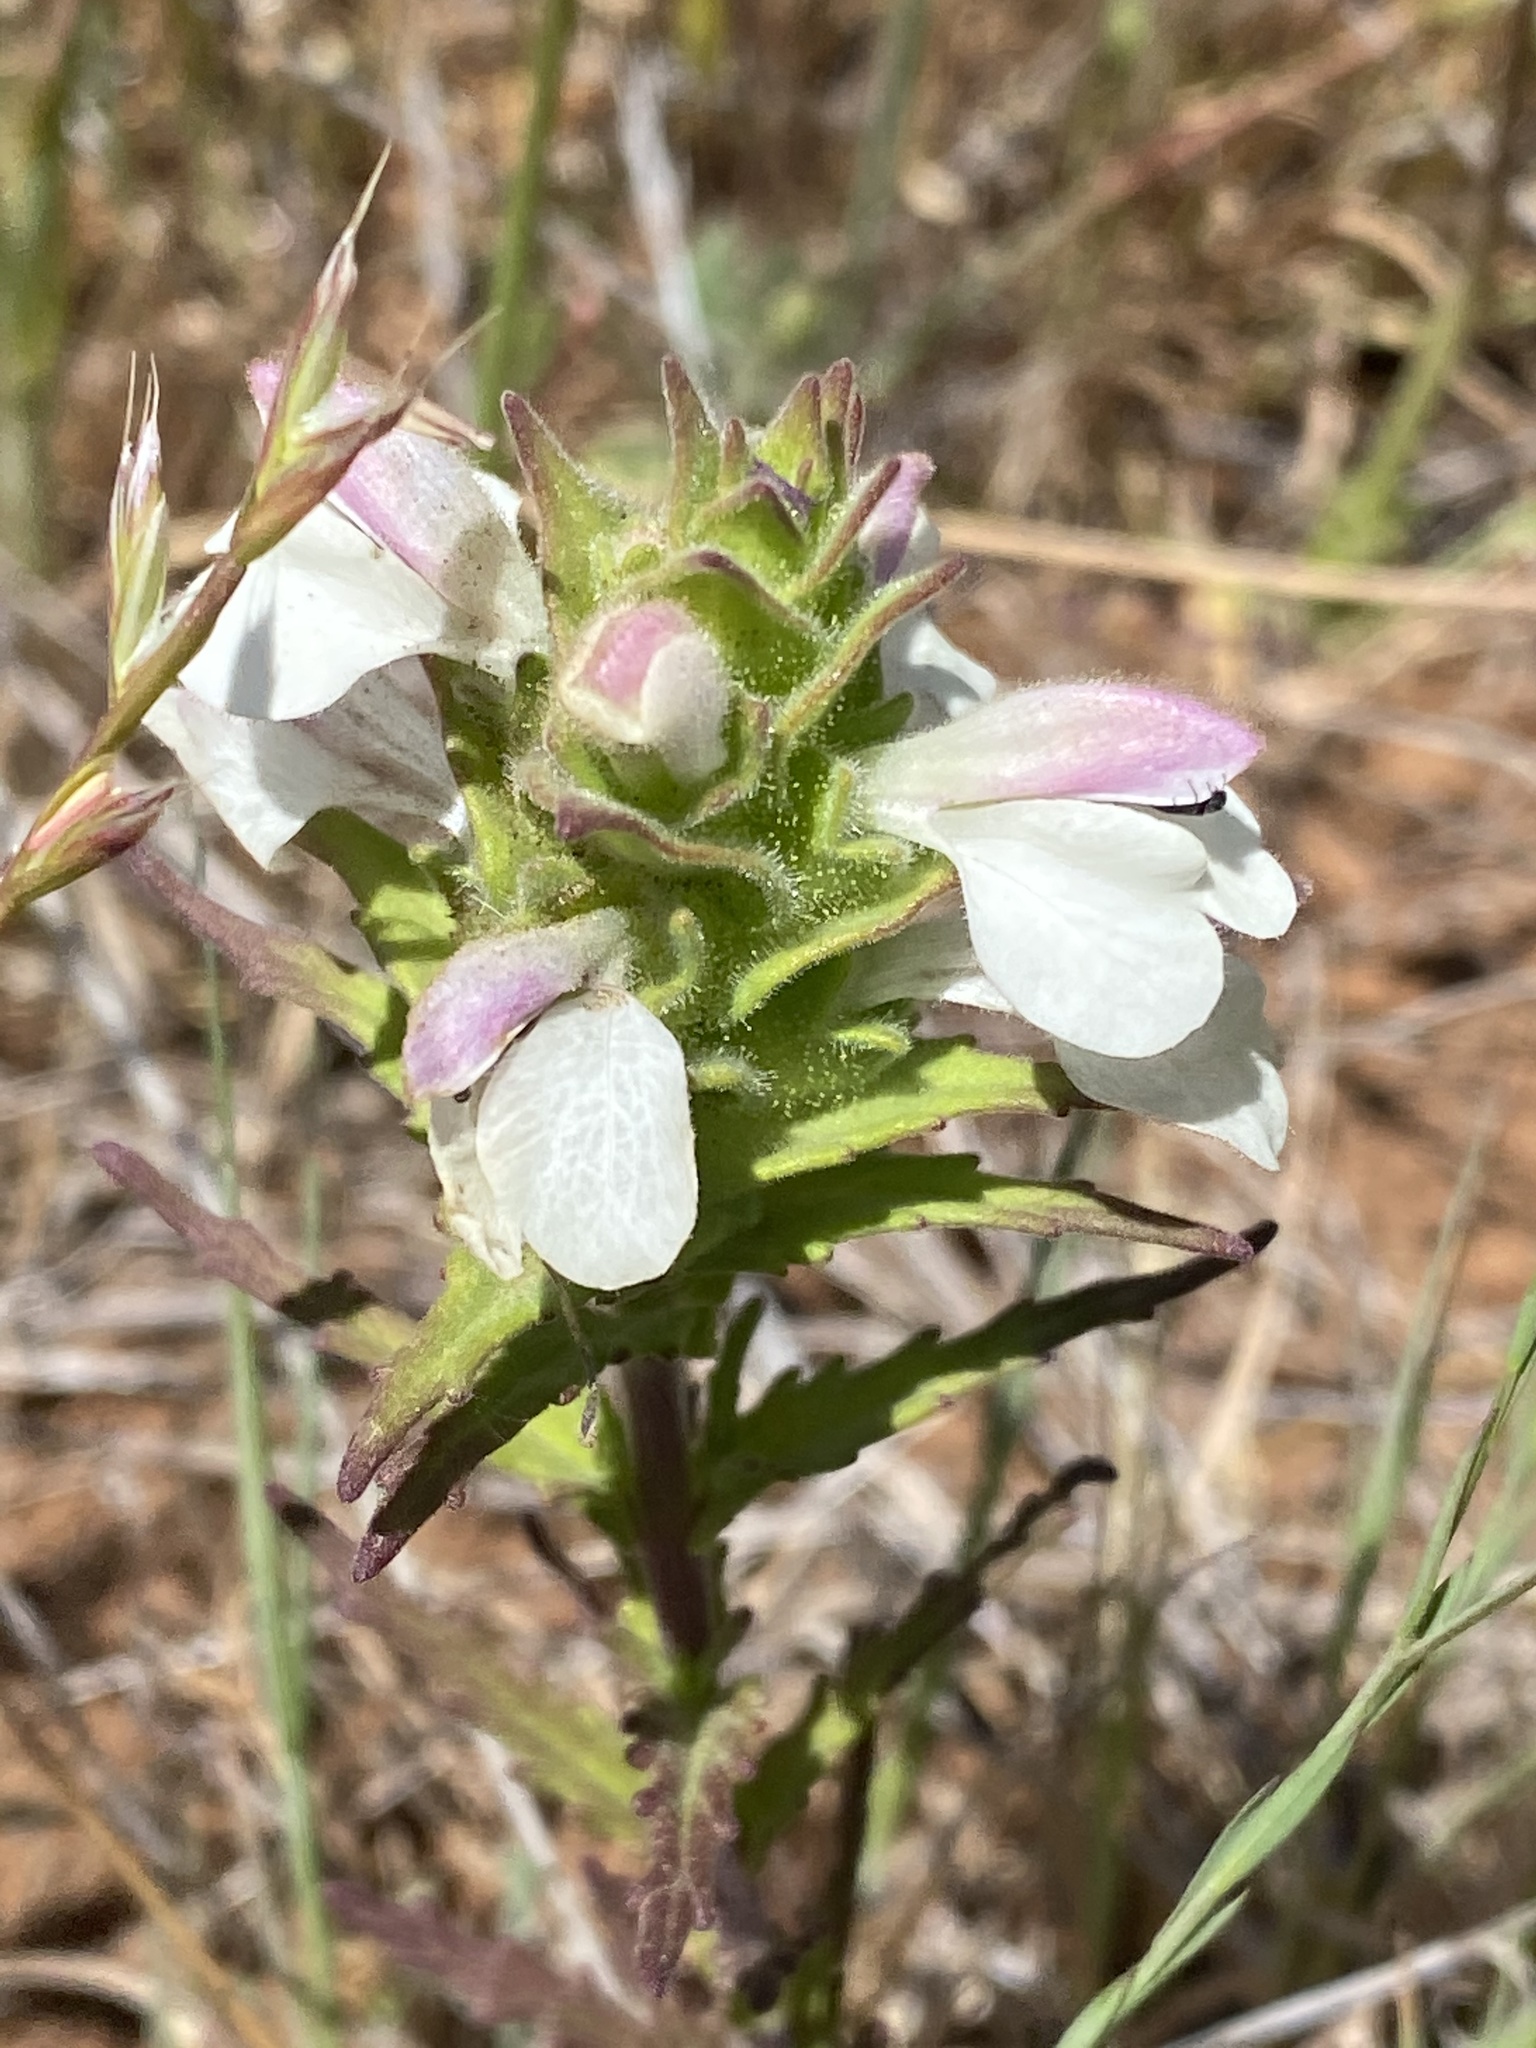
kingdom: Plantae
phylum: Tracheophyta
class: Magnoliopsida
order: Lamiales
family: Orobanchaceae
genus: Bellardia
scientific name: Bellardia trixago
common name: Mediterranean lineseed
